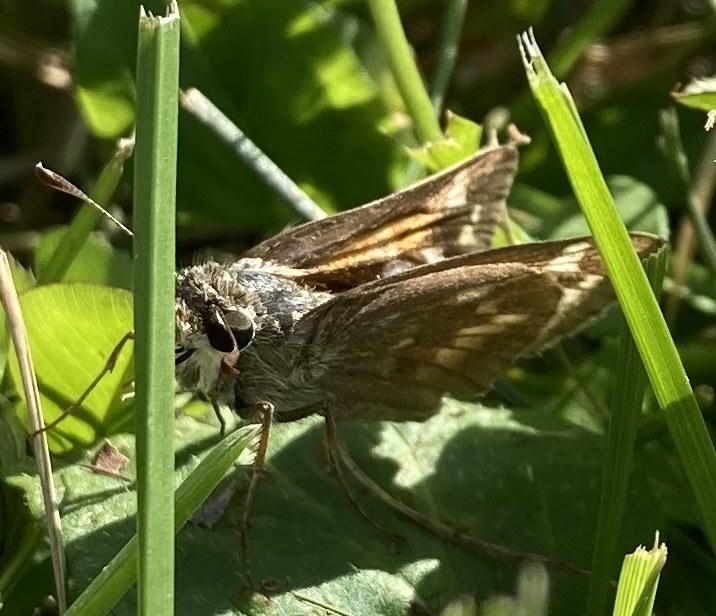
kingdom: Animalia
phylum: Arthropoda
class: Insecta
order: Lepidoptera
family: Hesperiidae
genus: Atalopedes
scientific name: Atalopedes
